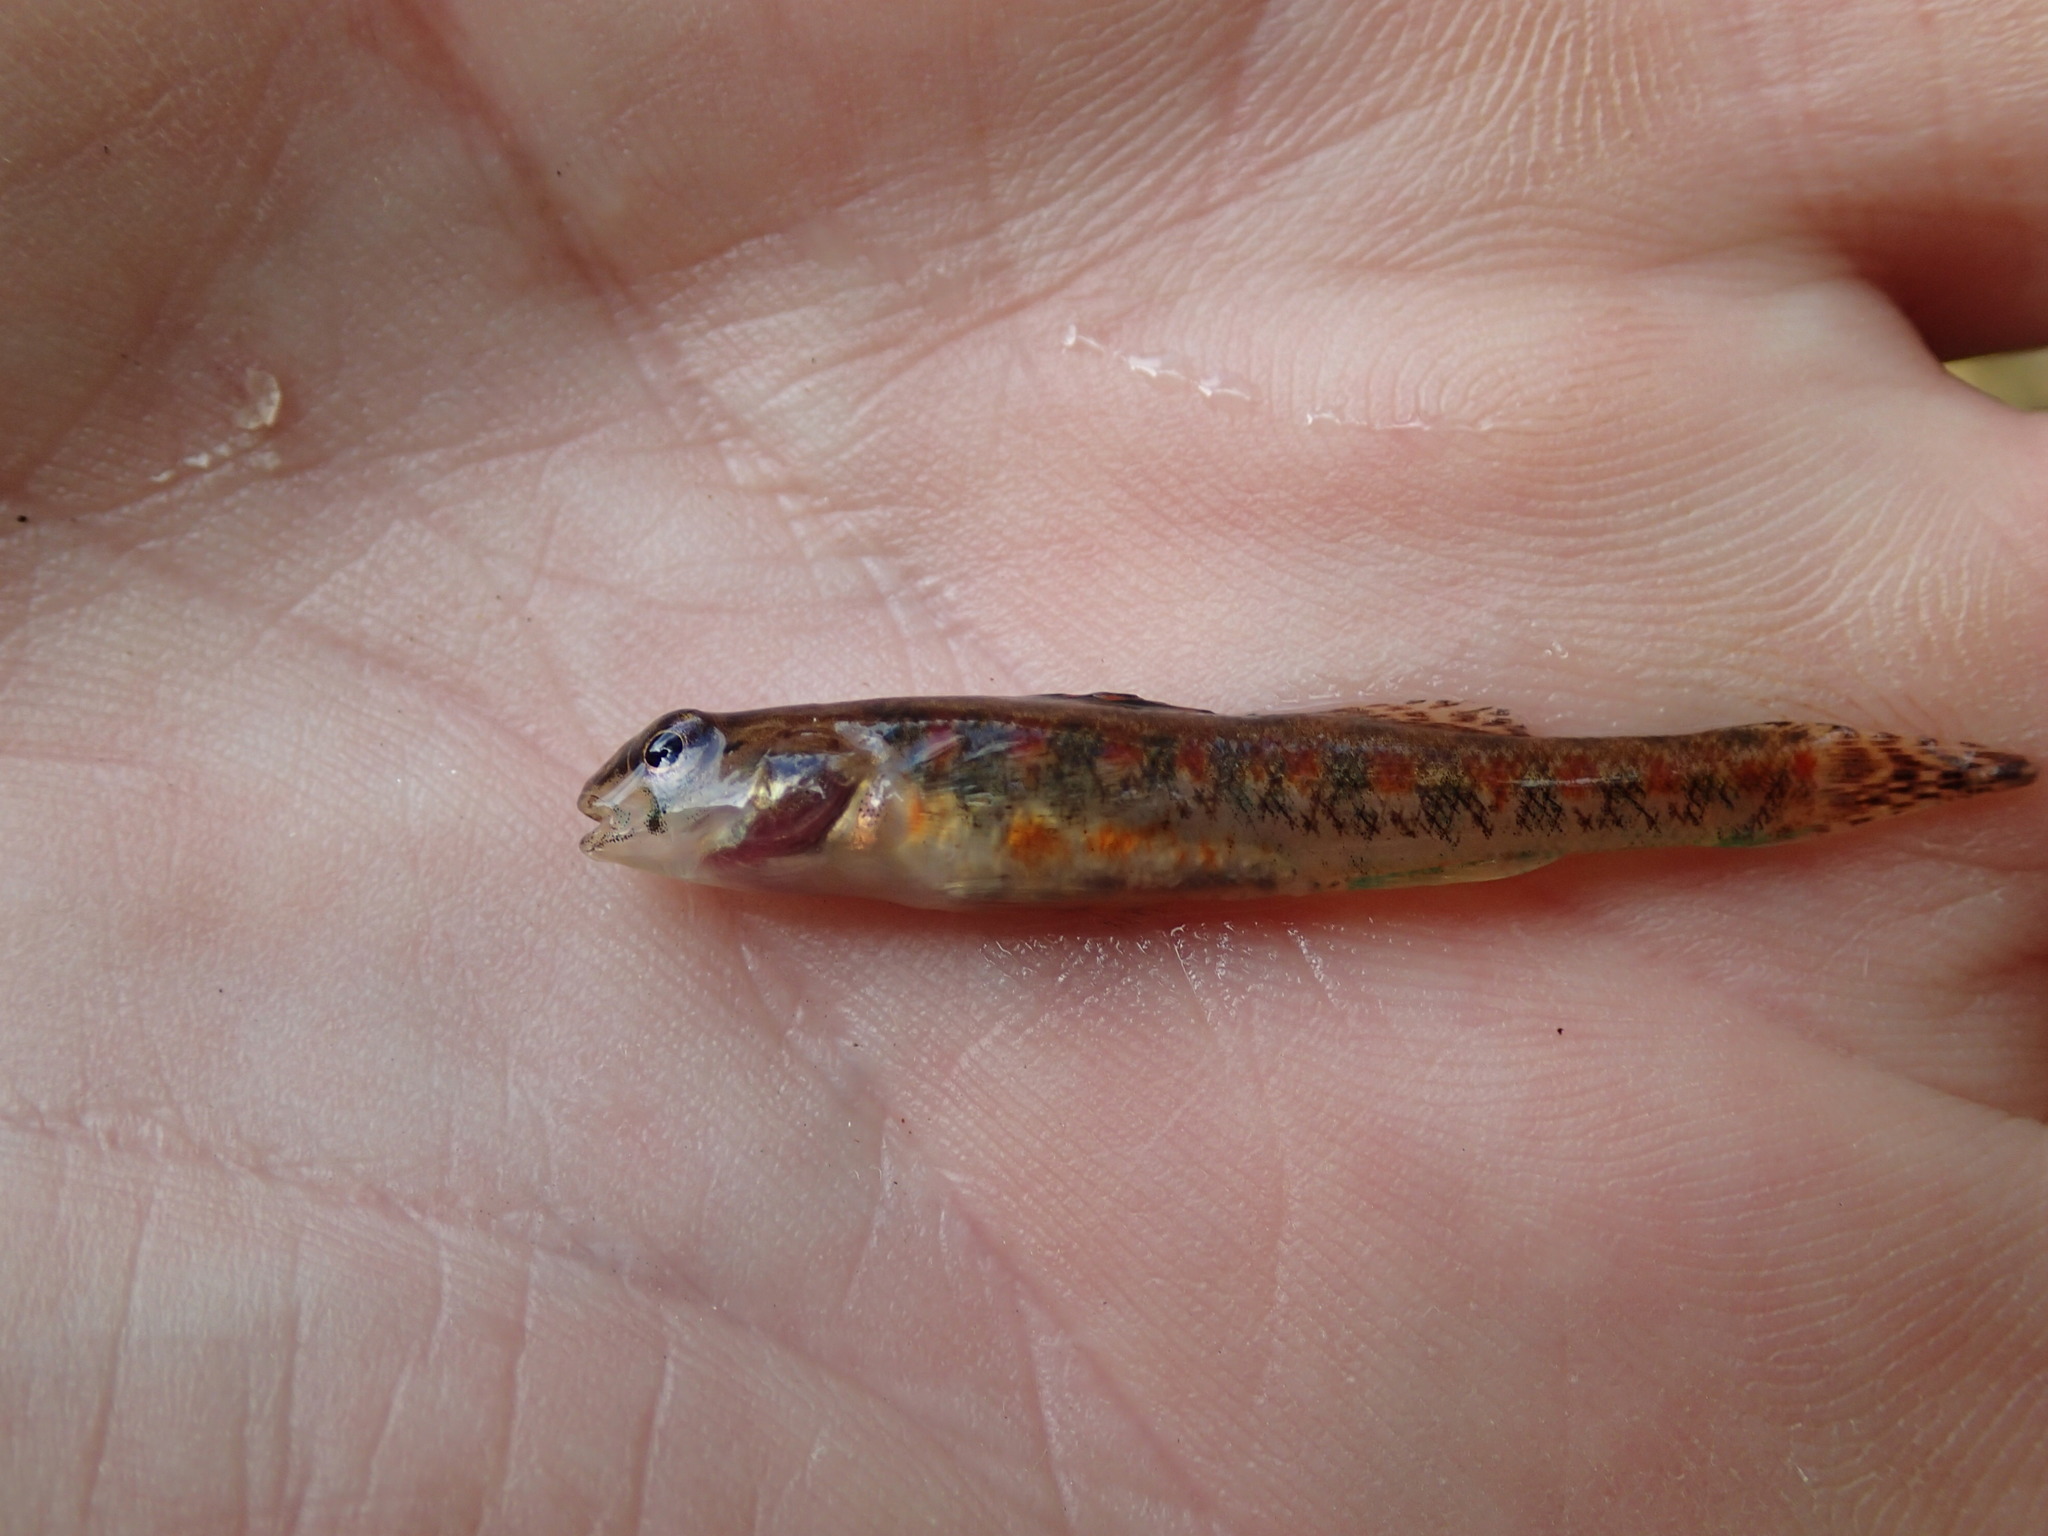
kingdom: Animalia
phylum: Chordata
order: Perciformes
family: Percidae
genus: Etheostoma
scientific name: Etheostoma exile
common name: Iowa darter
